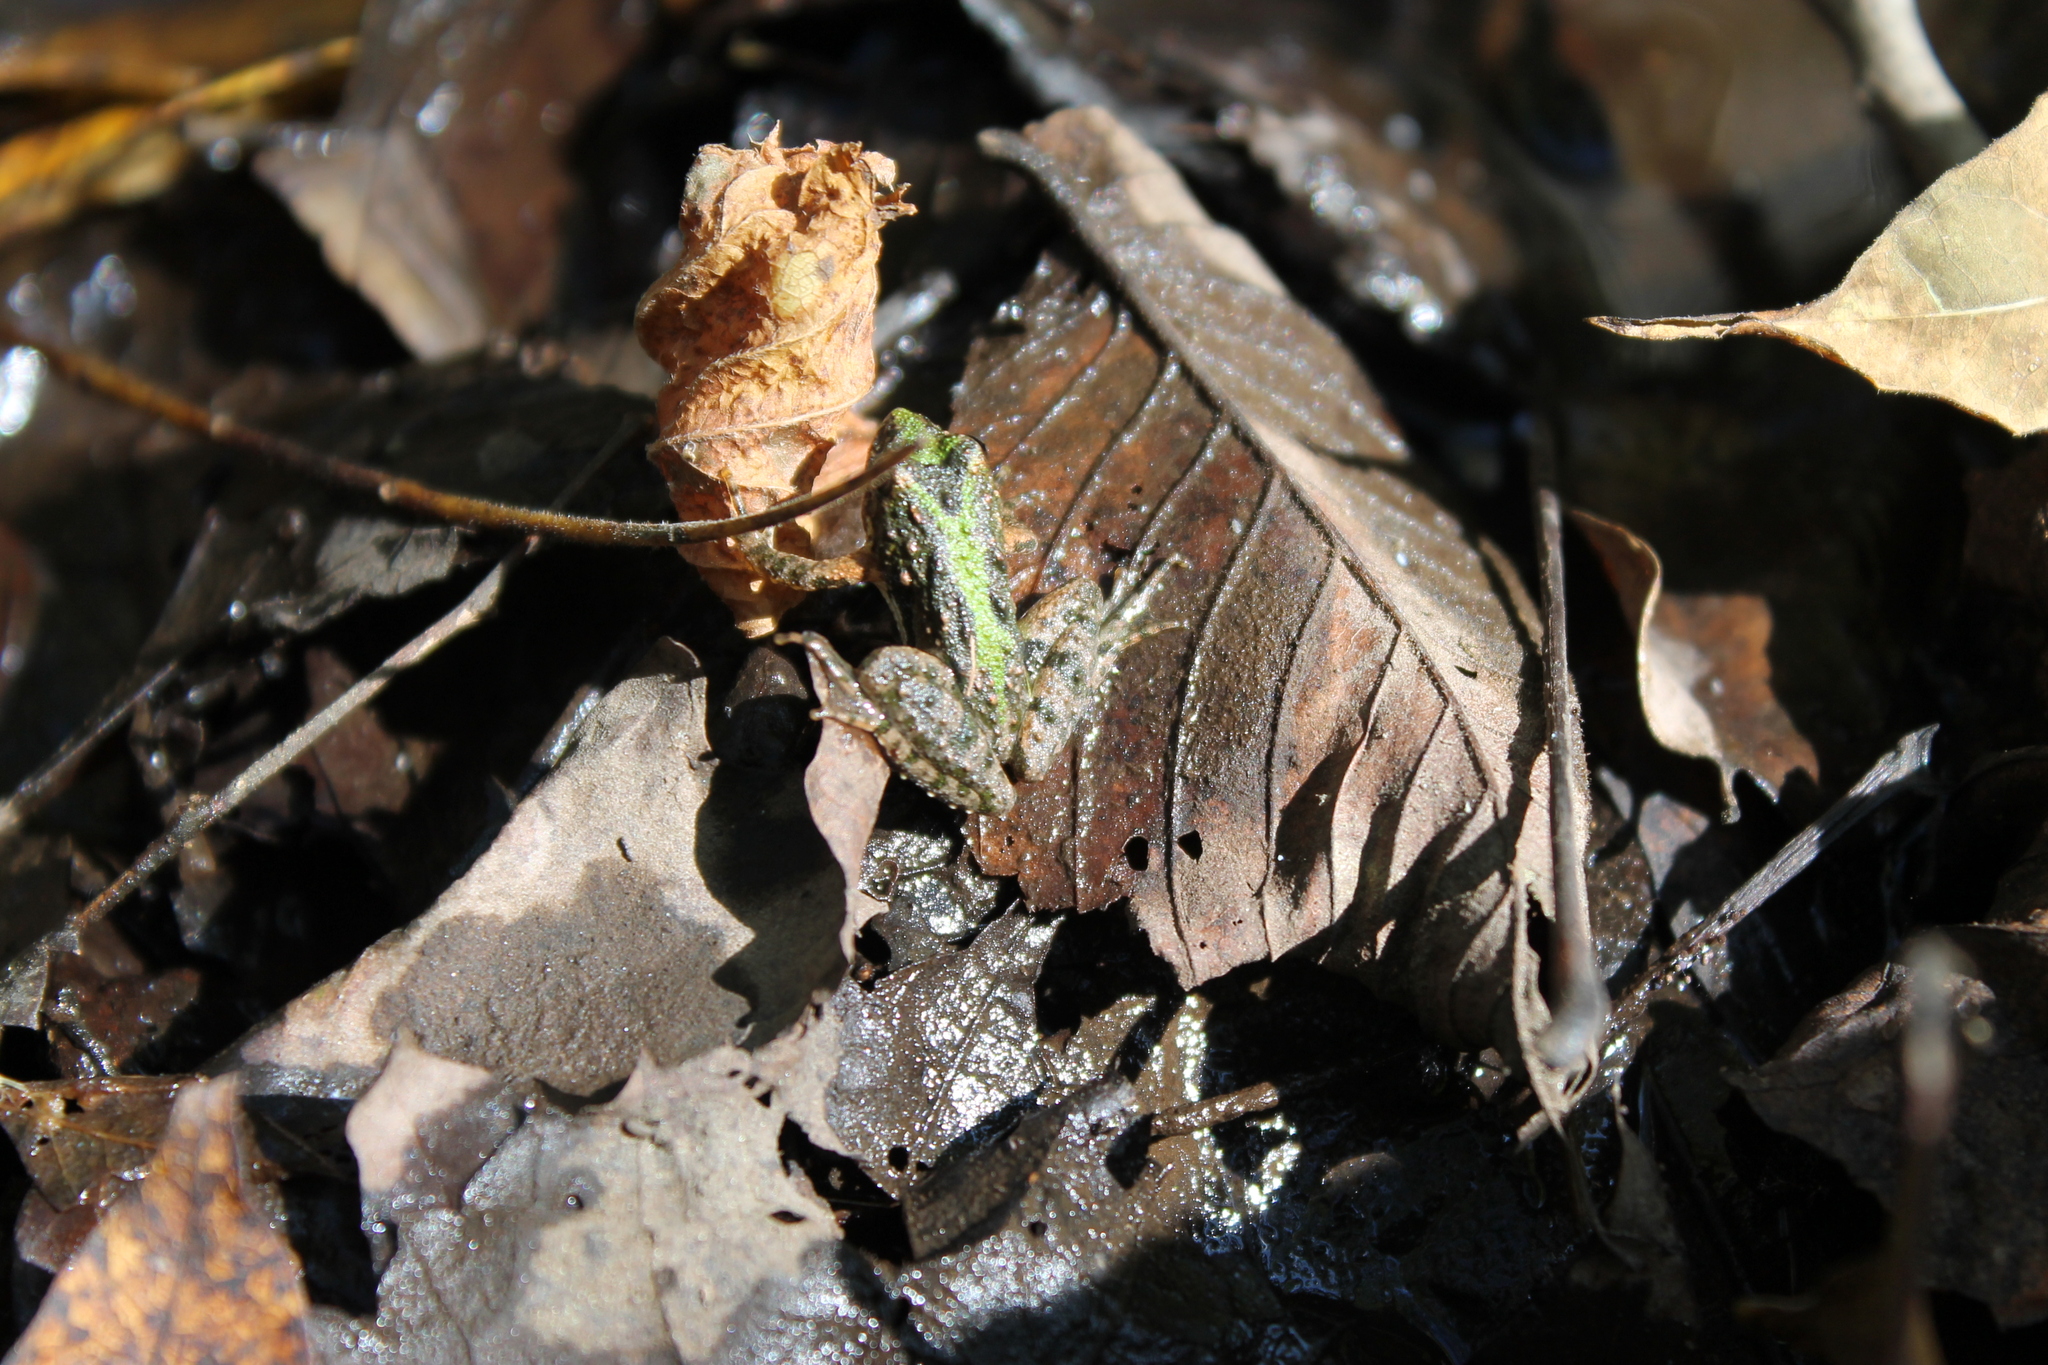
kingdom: Animalia
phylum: Chordata
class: Amphibia
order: Anura
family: Hylidae
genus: Acris
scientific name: Acris crepitans
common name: Northern cricket frog
